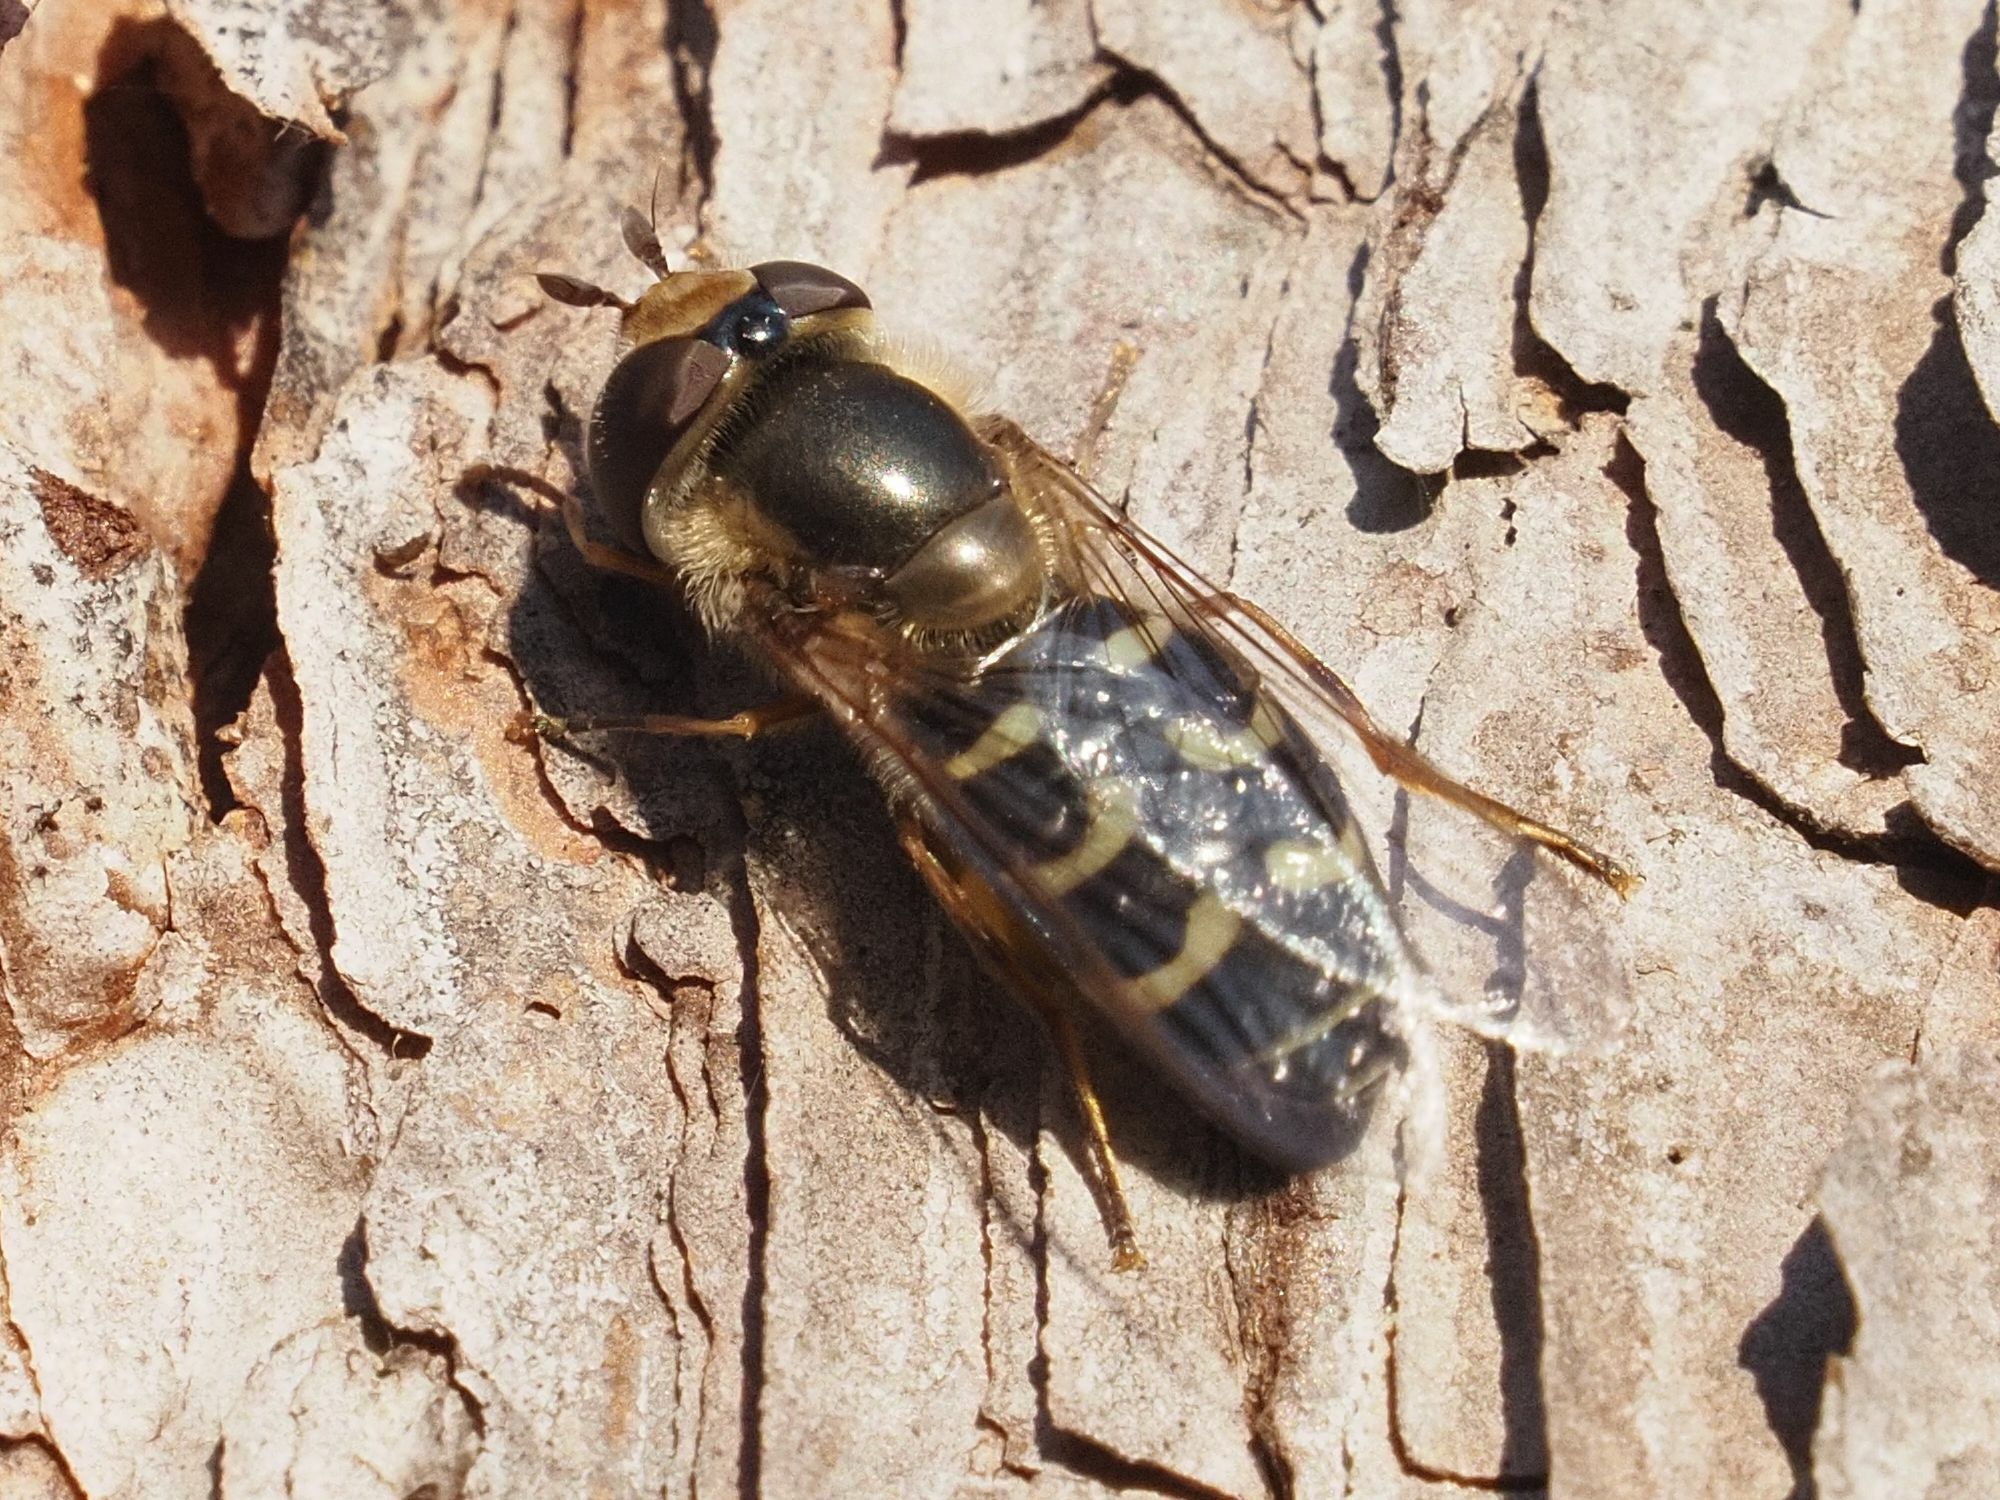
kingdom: Animalia
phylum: Arthropoda
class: Insecta
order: Diptera
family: Syrphidae
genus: Scaeva
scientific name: Scaeva selenitica
